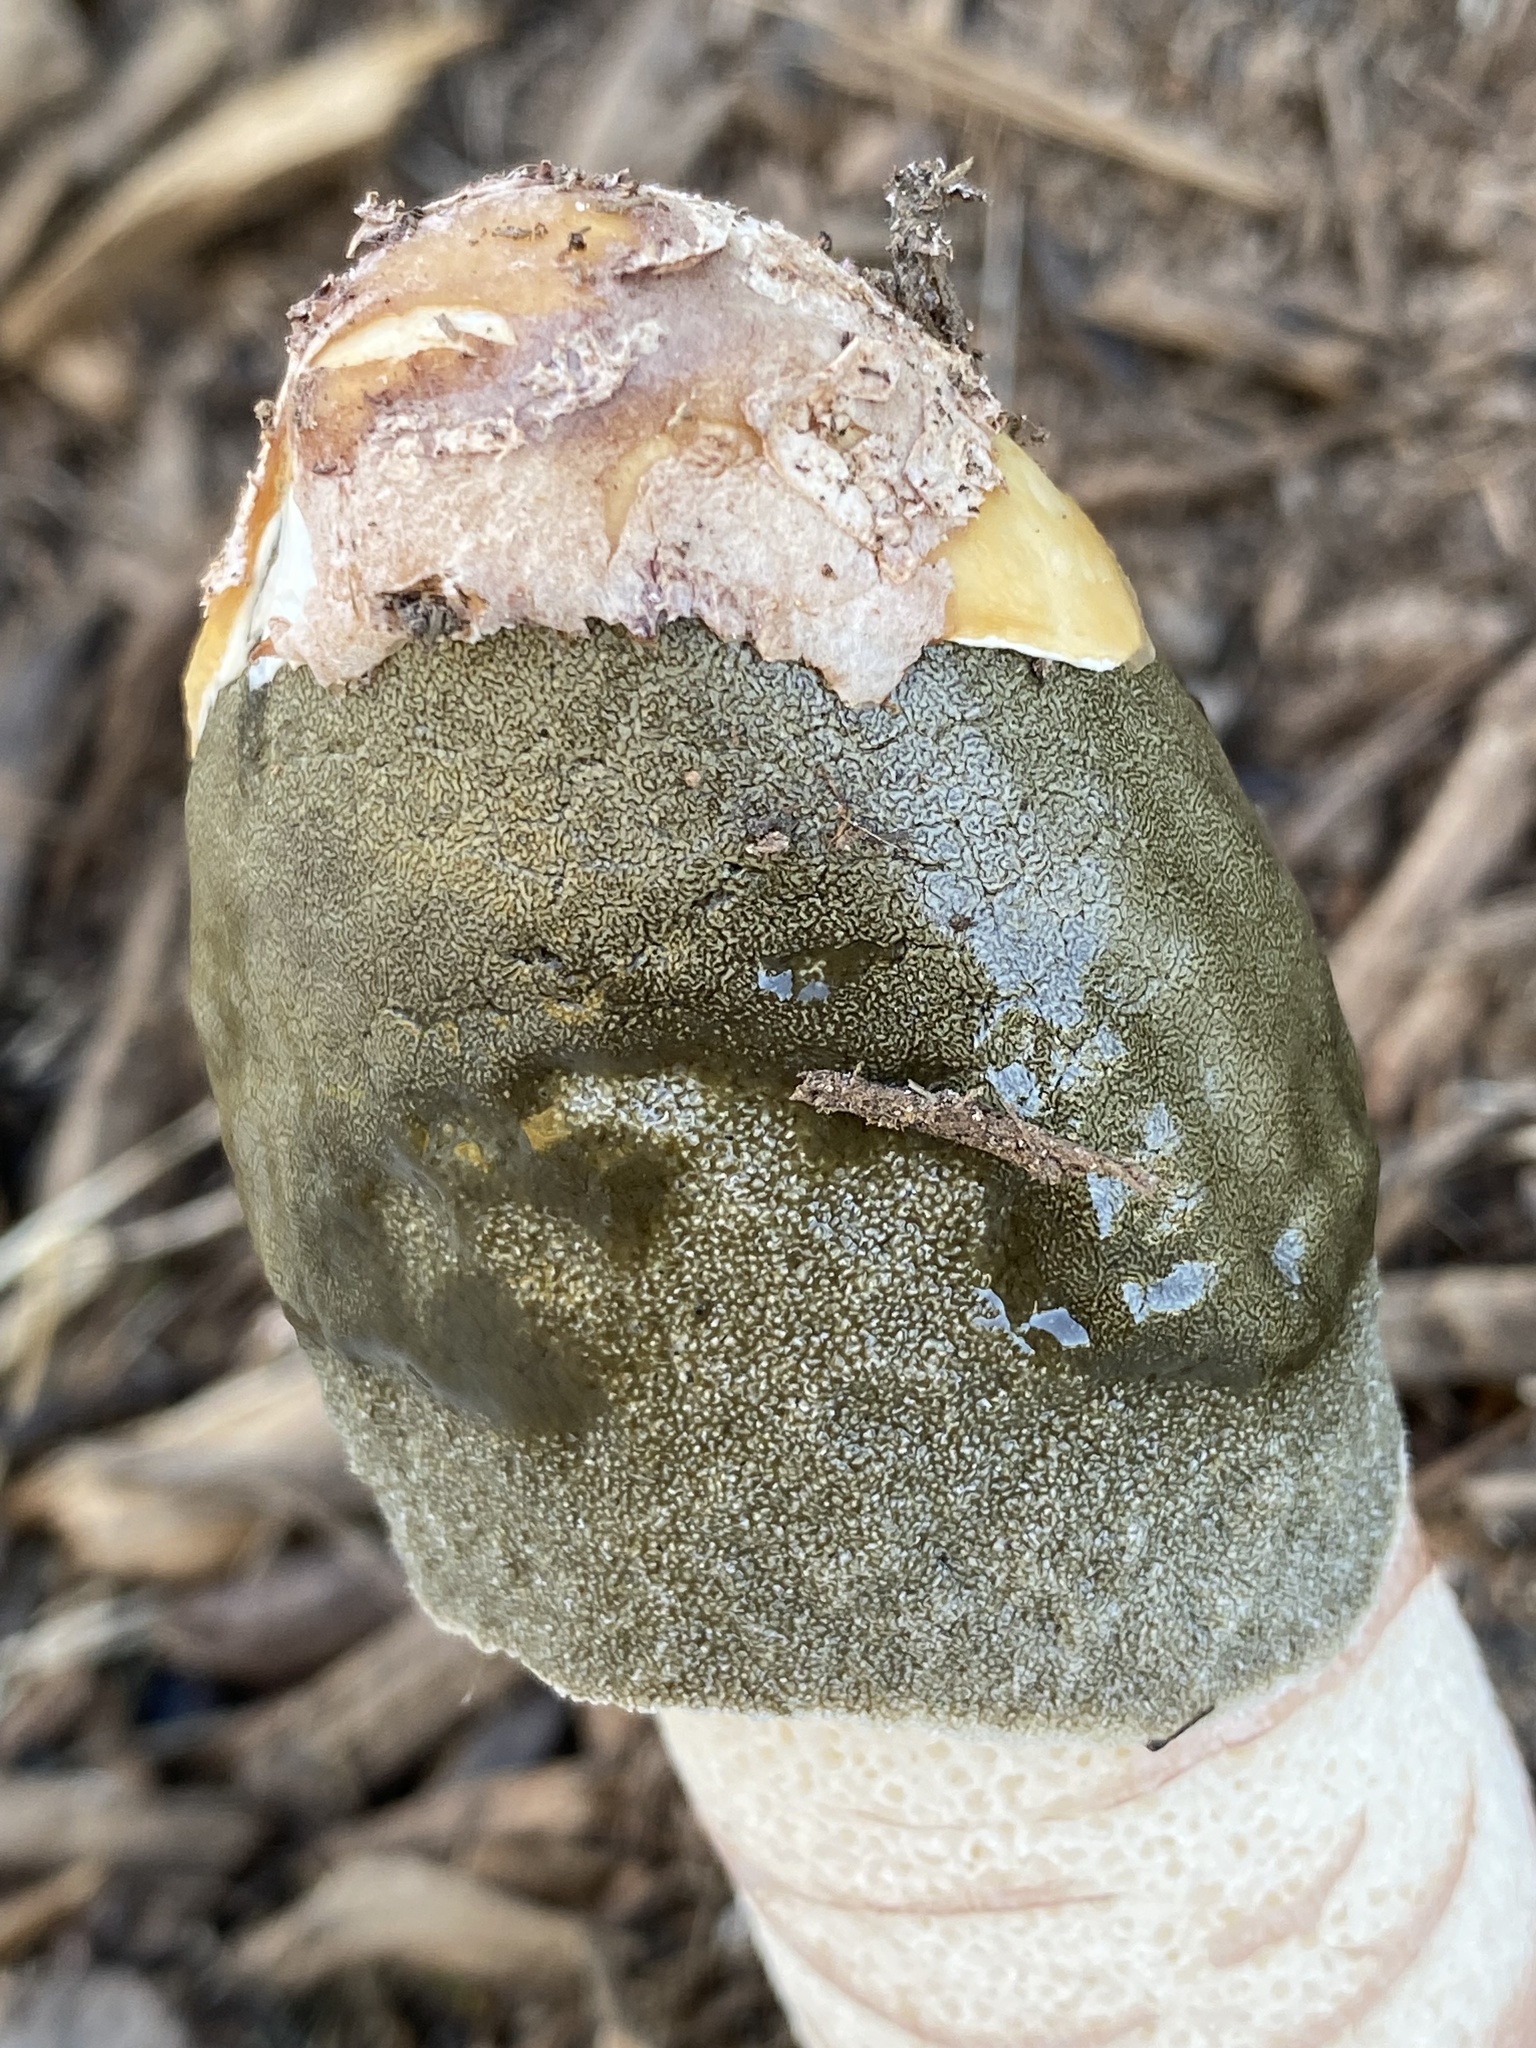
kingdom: Fungi
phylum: Basidiomycota
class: Agaricomycetes
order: Phallales
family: Phallaceae
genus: Phallus
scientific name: Phallus ravenelii
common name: Ravenel's stinkhorn
